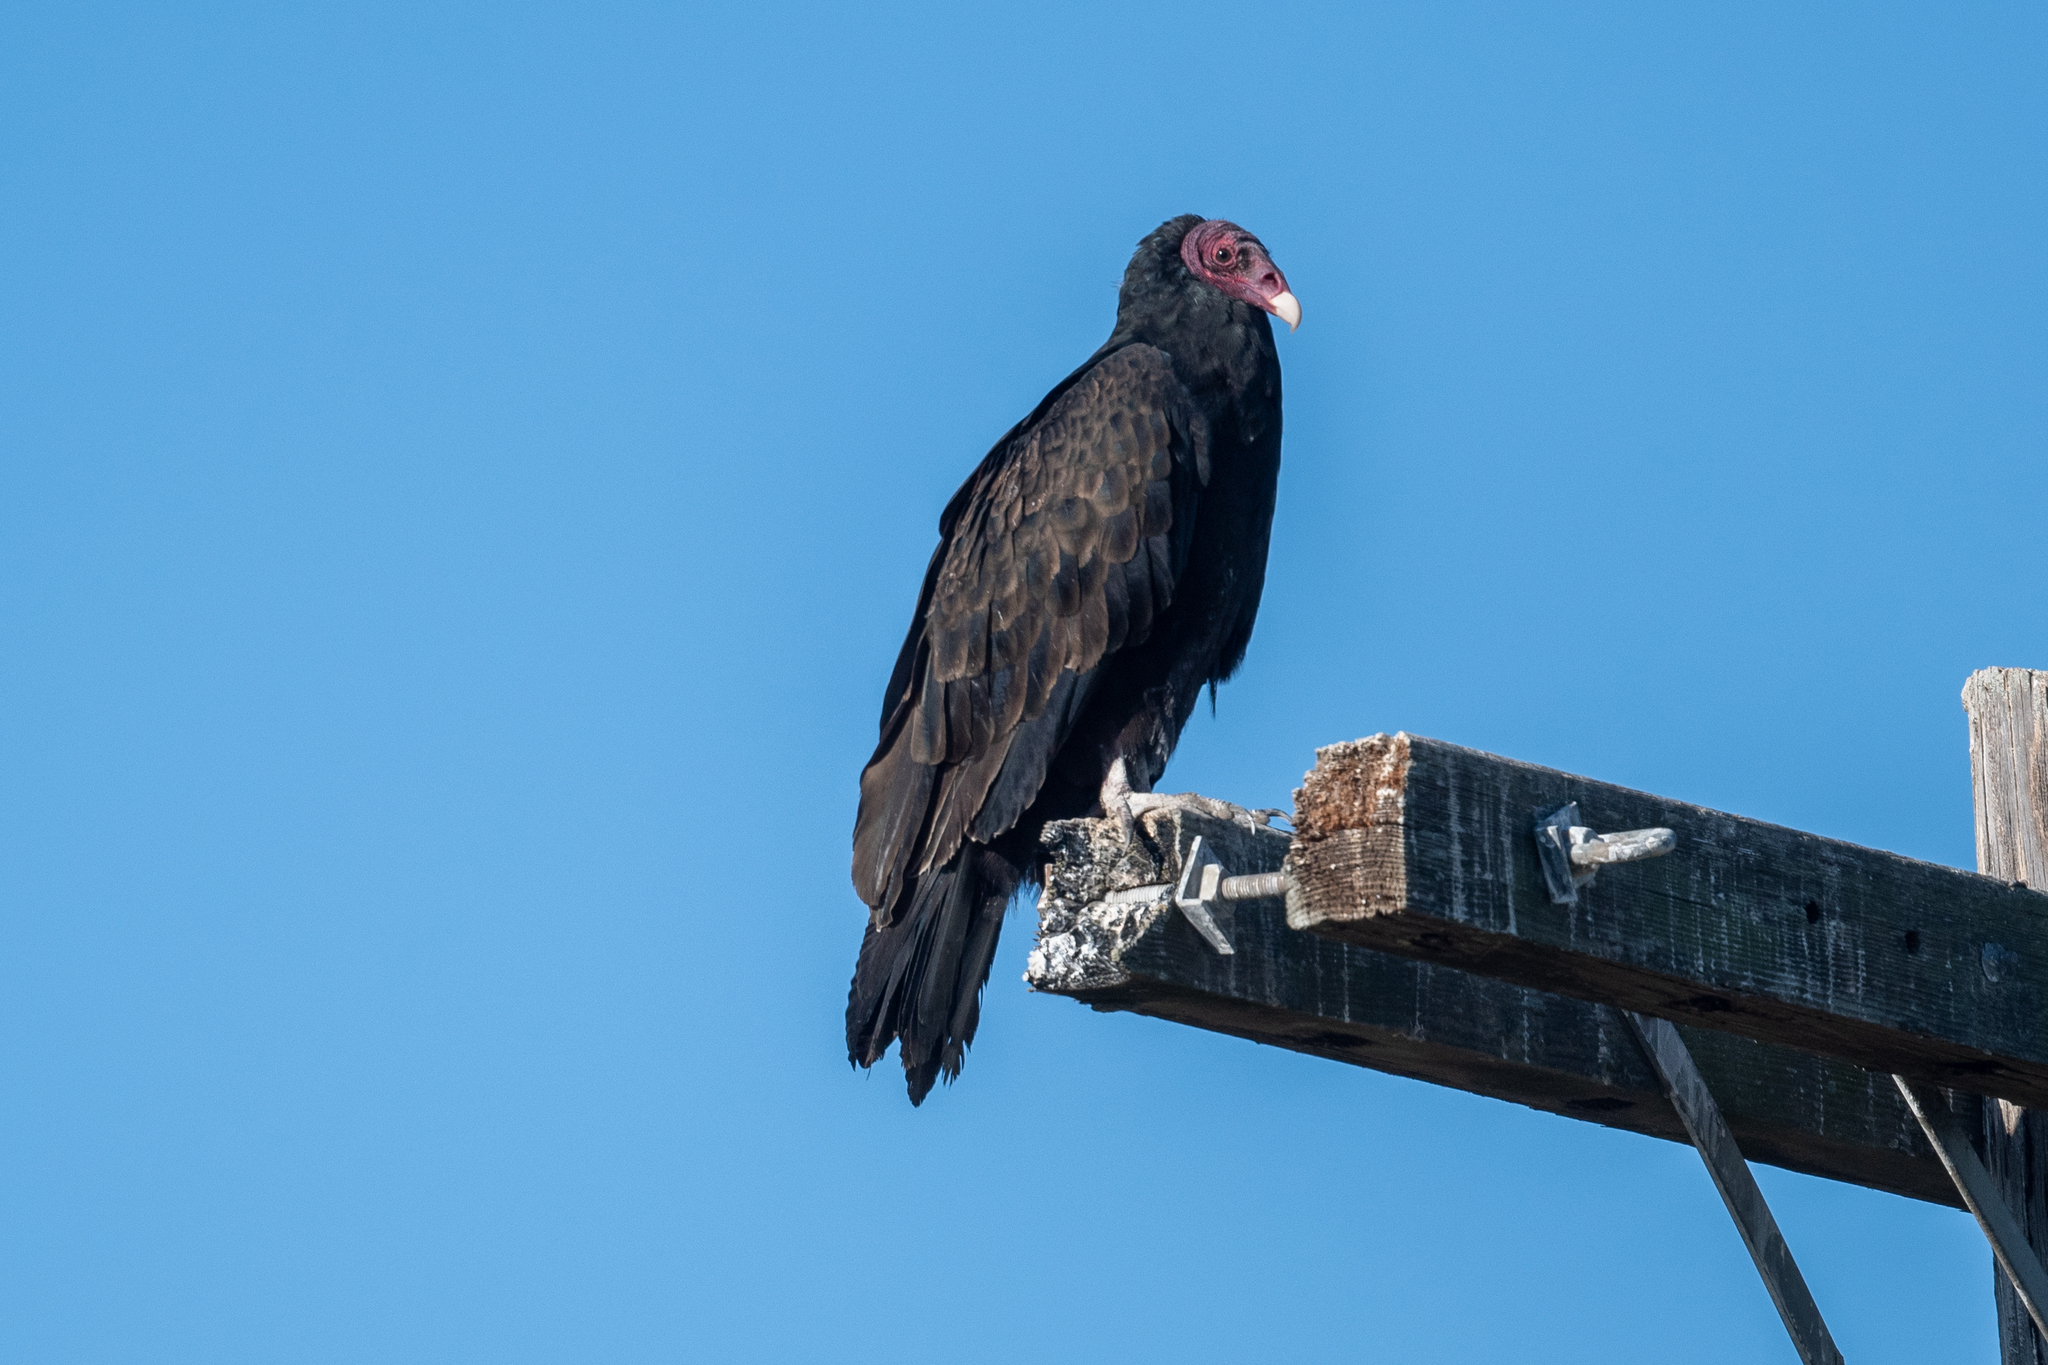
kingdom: Animalia
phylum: Chordata
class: Aves
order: Accipitriformes
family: Cathartidae
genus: Cathartes
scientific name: Cathartes aura
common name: Turkey vulture
